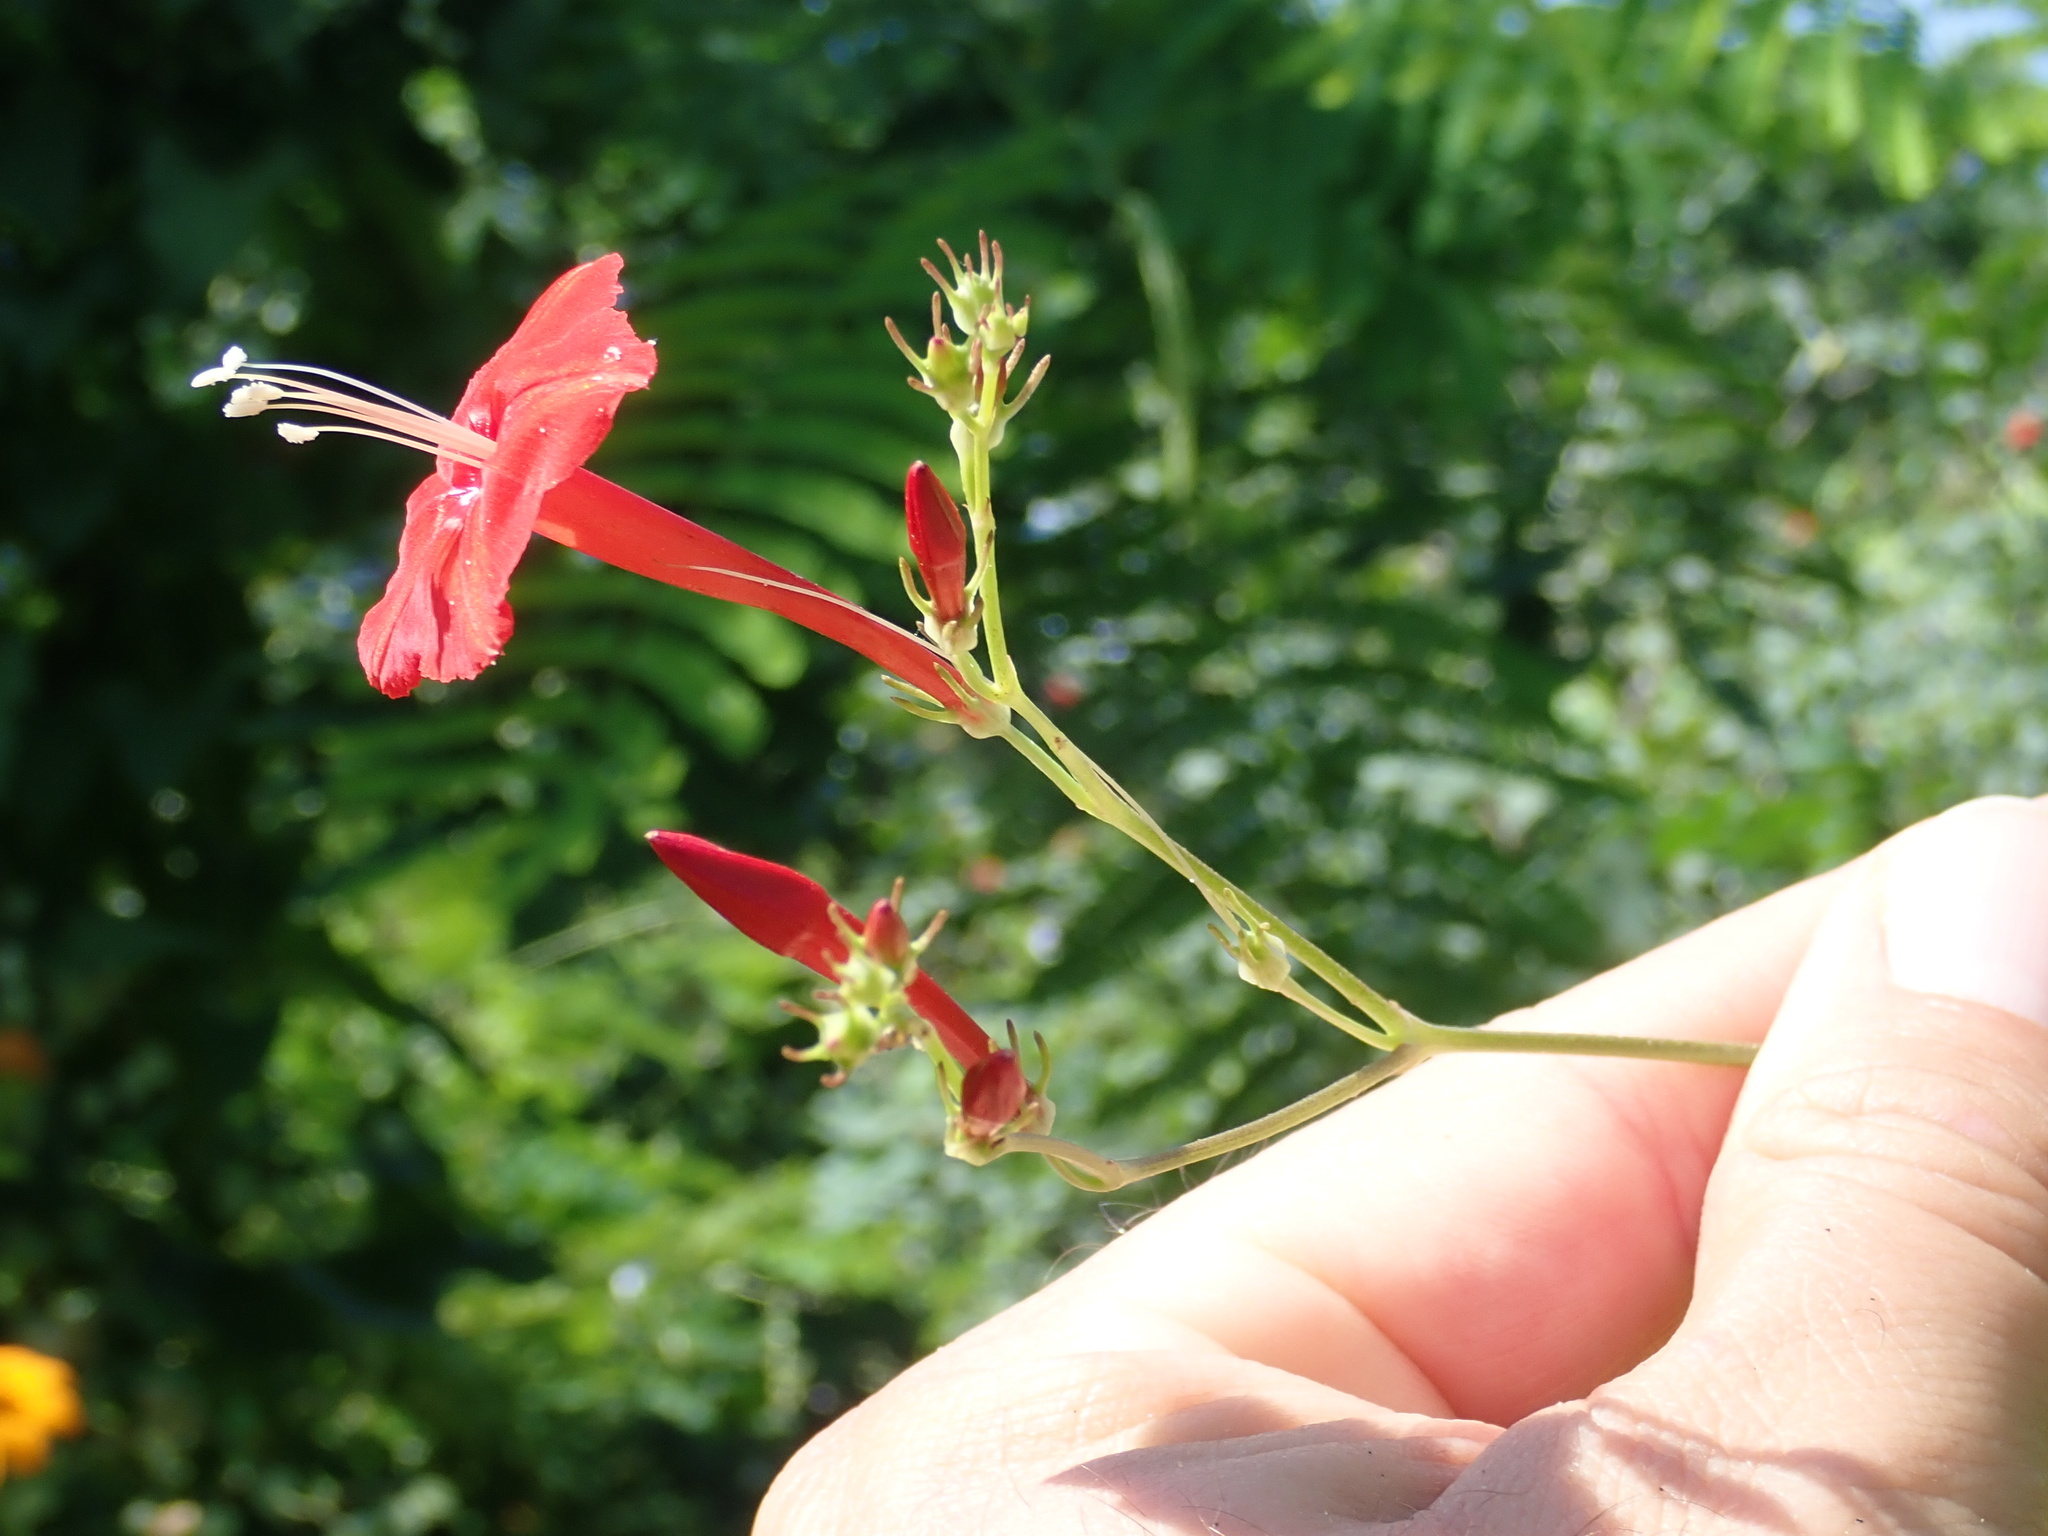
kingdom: Plantae
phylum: Tracheophyta
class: Magnoliopsida
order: Solanales
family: Convolvulaceae
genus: Ipomoea
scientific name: Ipomoea hederifolia
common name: Ivy-leaf morning-glory
